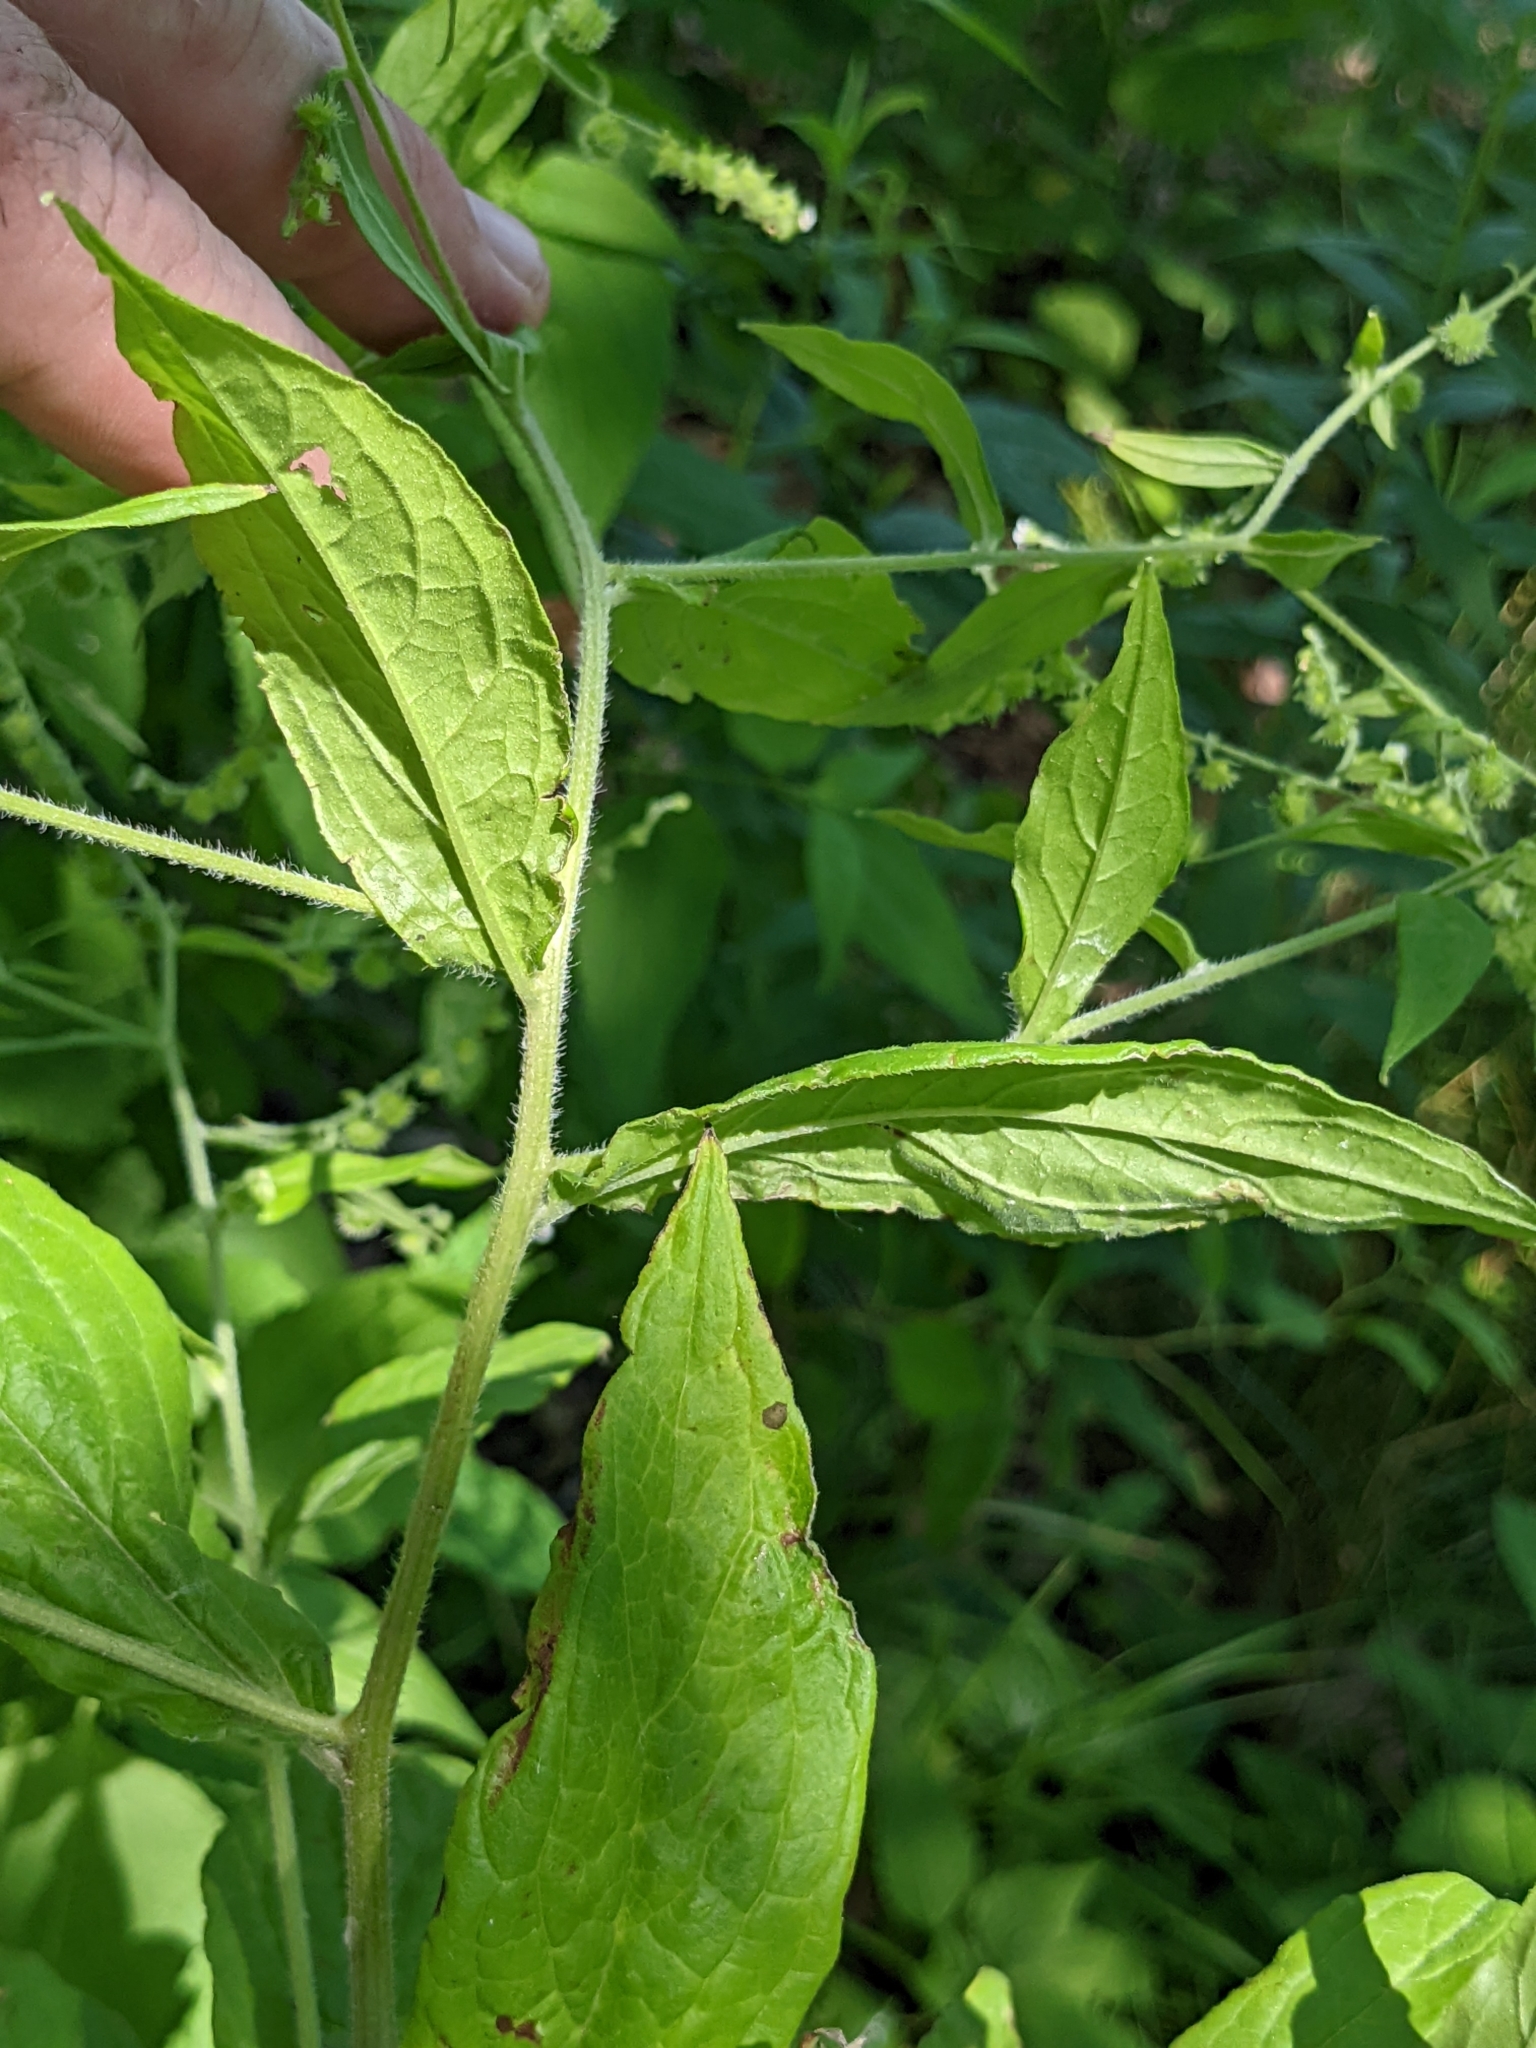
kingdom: Plantae
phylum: Tracheophyta
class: Magnoliopsida
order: Boraginales
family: Boraginaceae
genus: Hackelia
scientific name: Hackelia virginiana
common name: Beggar's-lice
